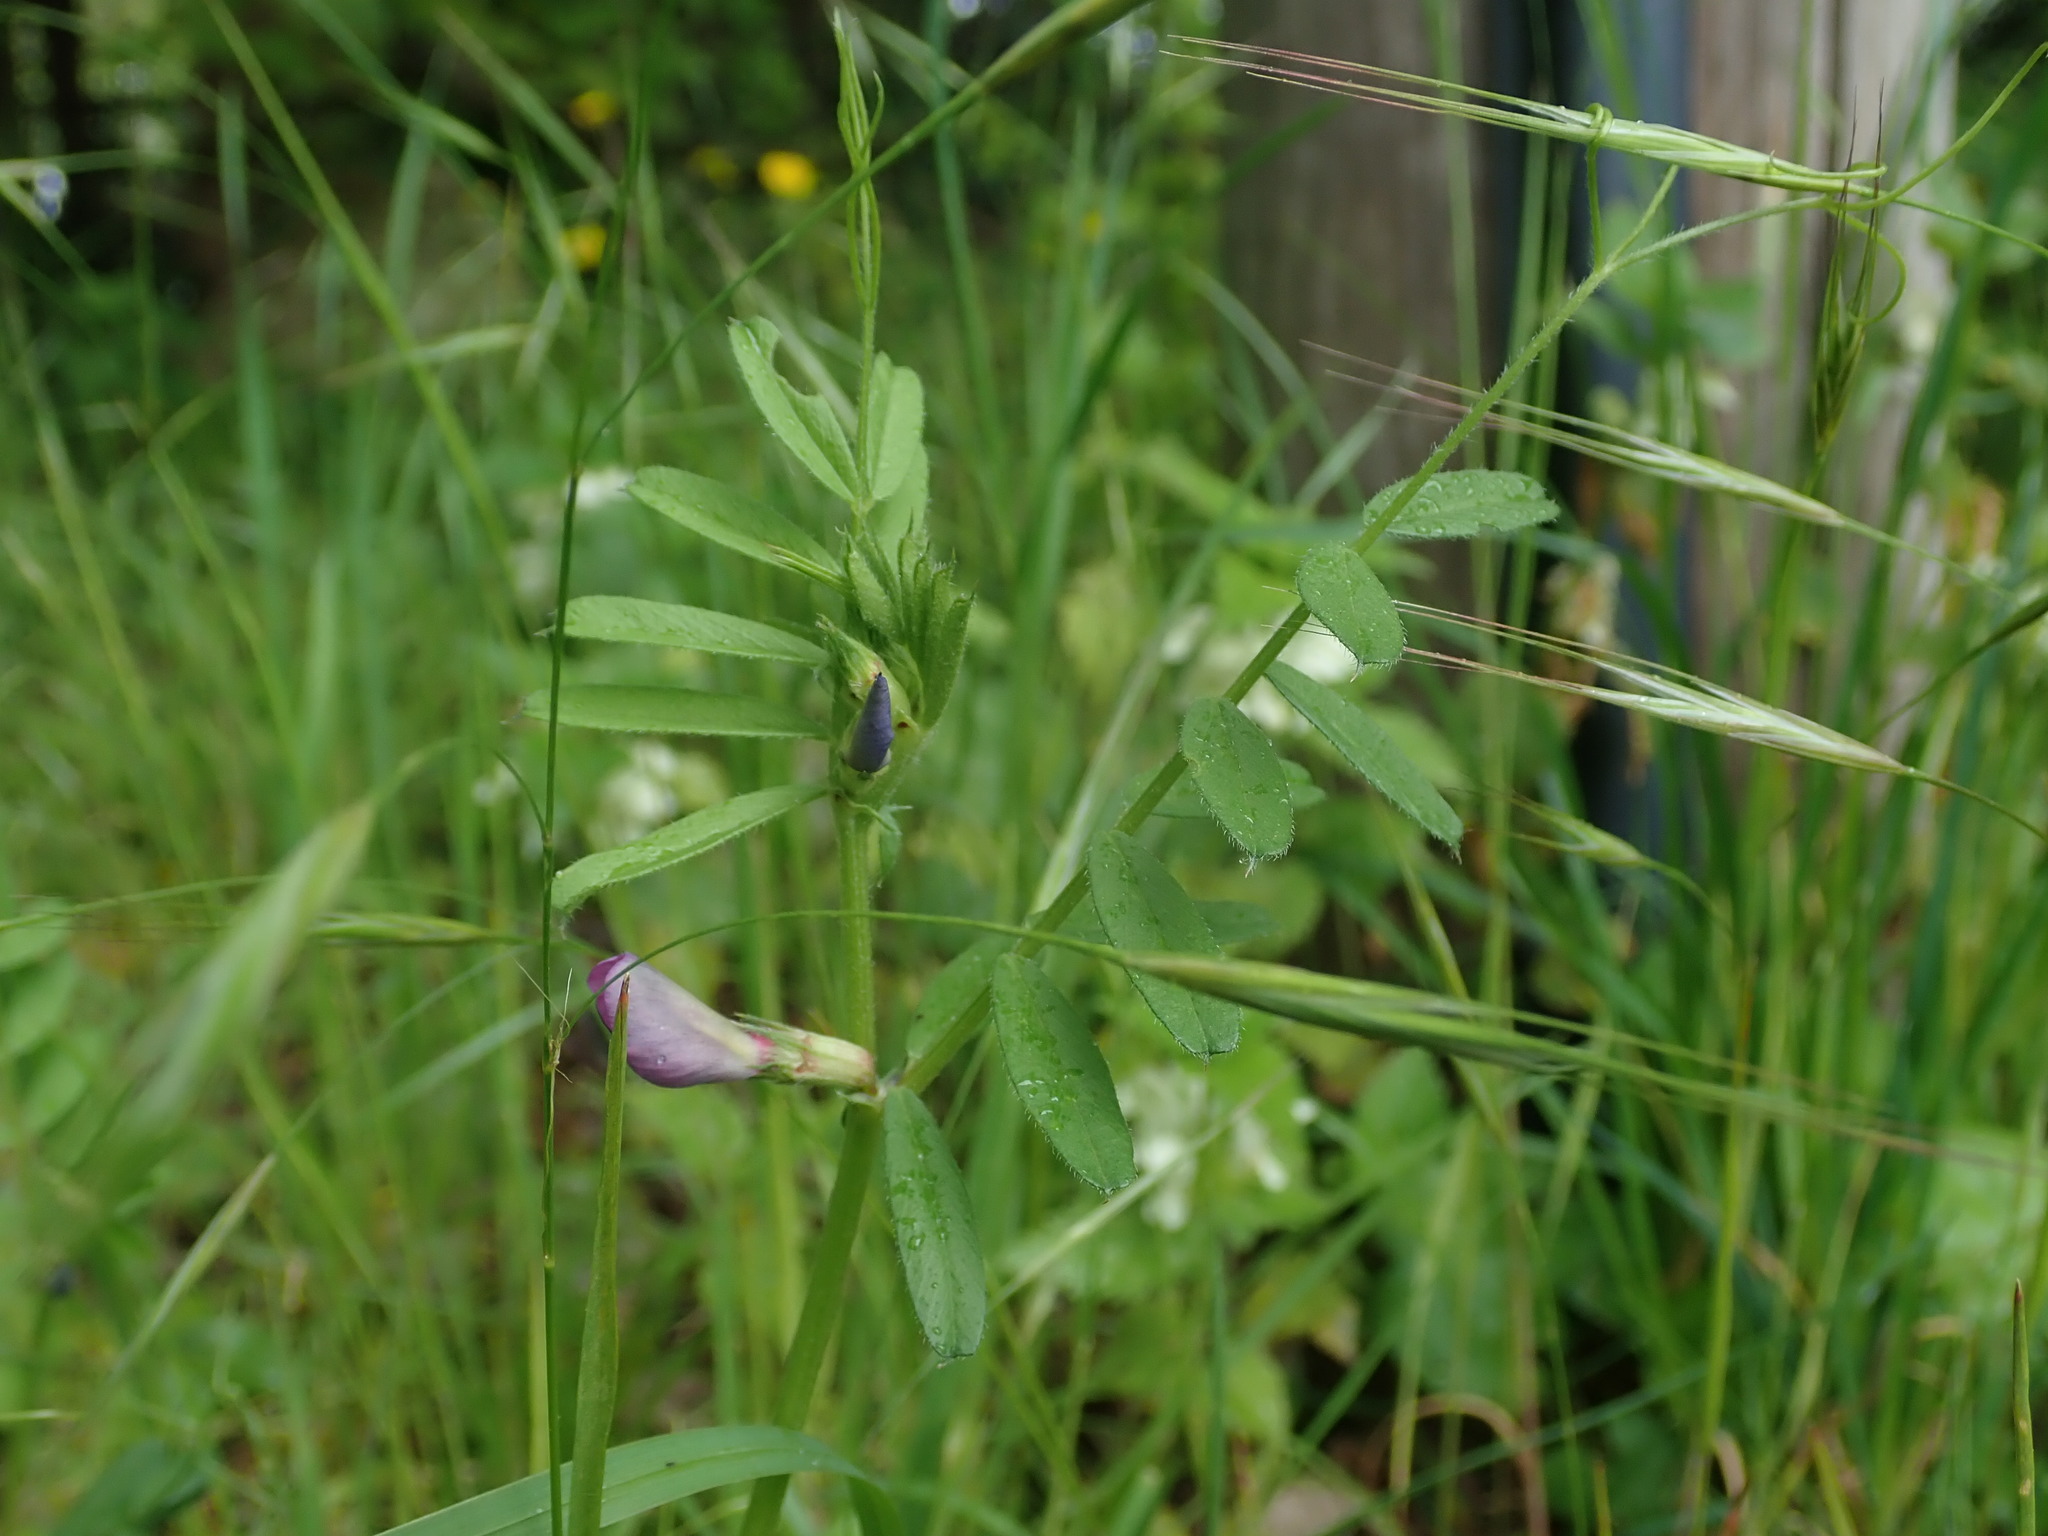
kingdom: Plantae
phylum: Tracheophyta
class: Magnoliopsida
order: Fabales
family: Fabaceae
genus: Vicia
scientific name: Vicia sativa
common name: Garden vetch
